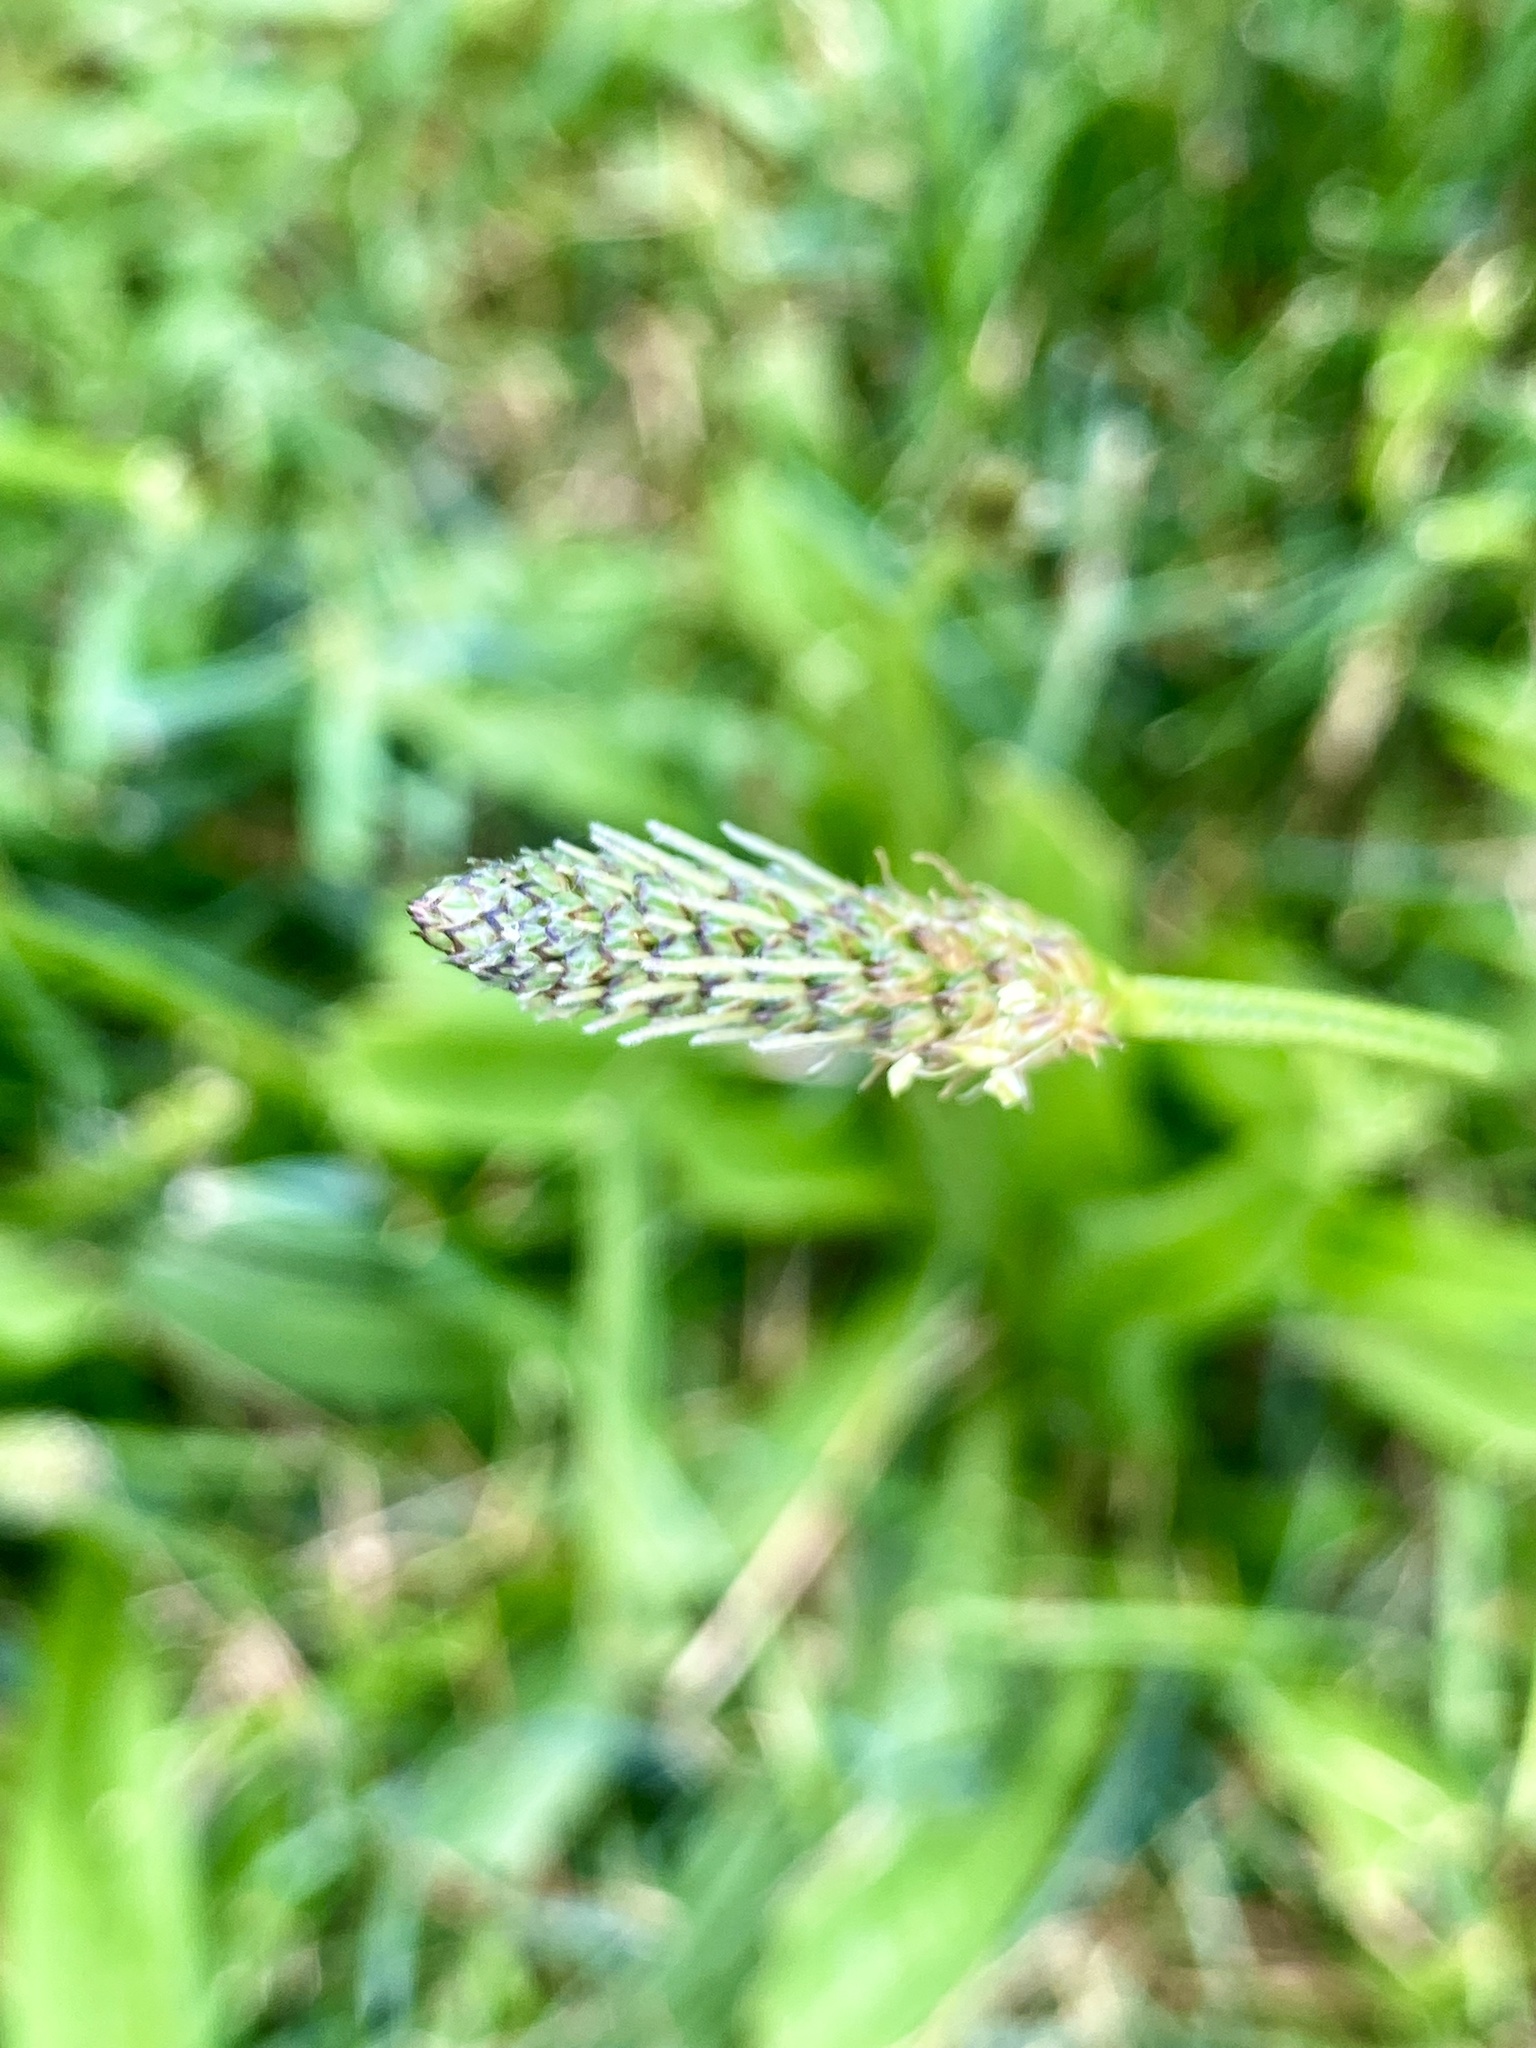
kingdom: Plantae
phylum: Tracheophyta
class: Magnoliopsida
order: Lamiales
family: Plantaginaceae
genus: Plantago
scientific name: Plantago lanceolata
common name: Ribwort plantain
